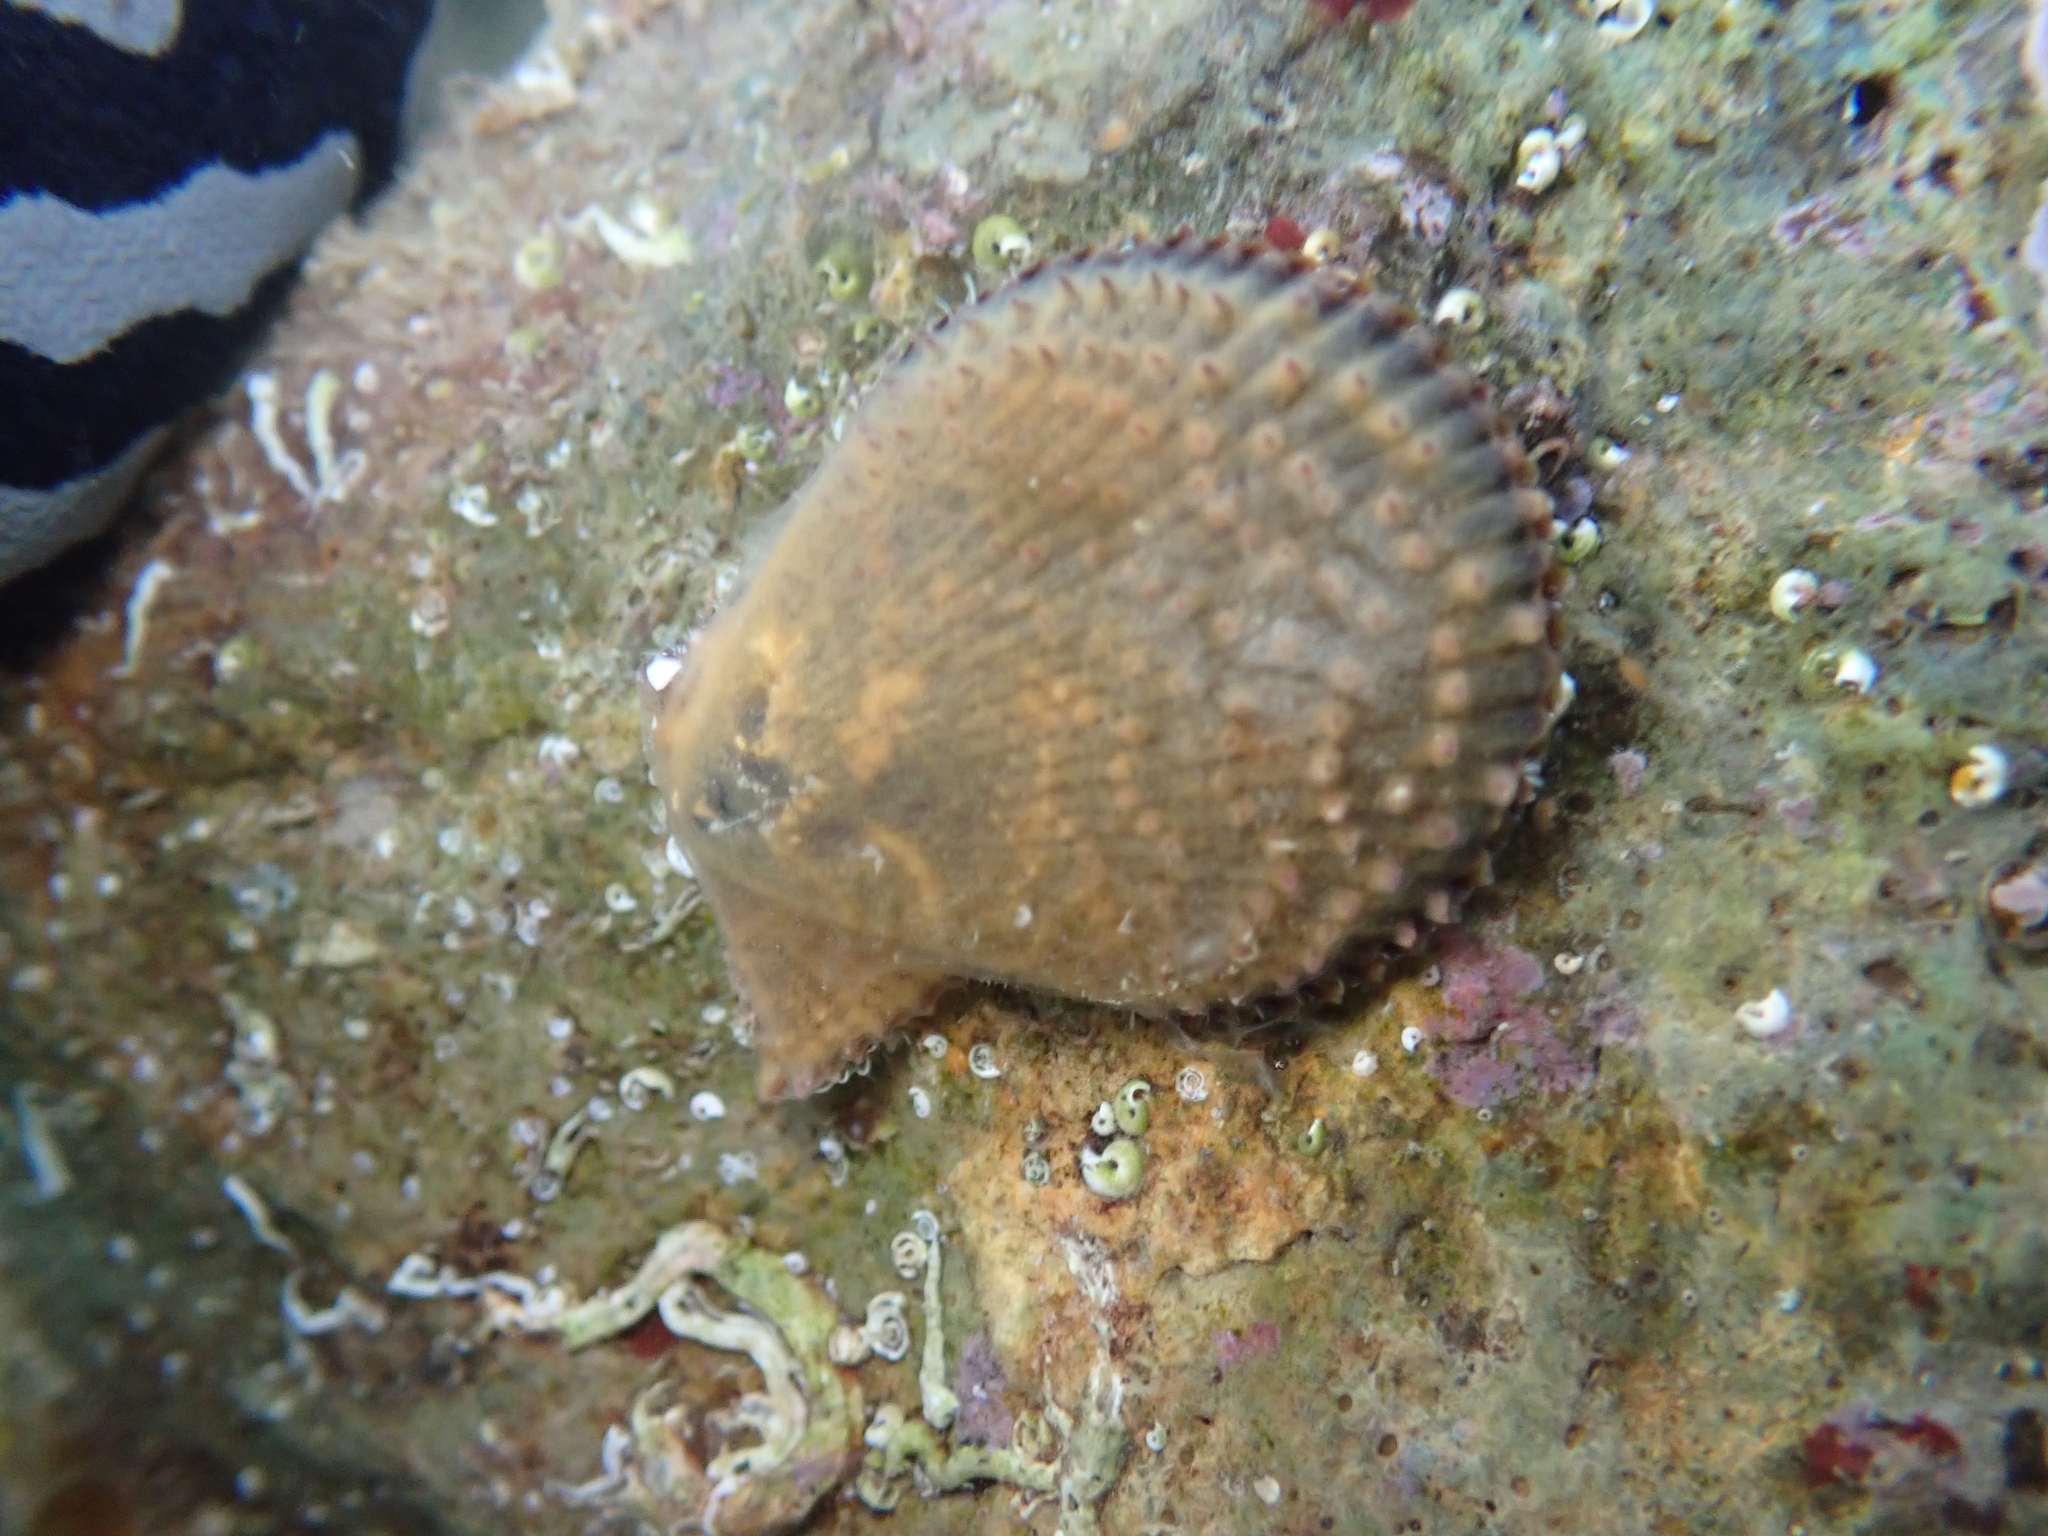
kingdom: Animalia
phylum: Mollusca
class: Bivalvia
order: Pectinida
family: Pectinidae
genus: Mimachlamys
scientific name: Mimachlamys varia
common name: Variegated scallop
